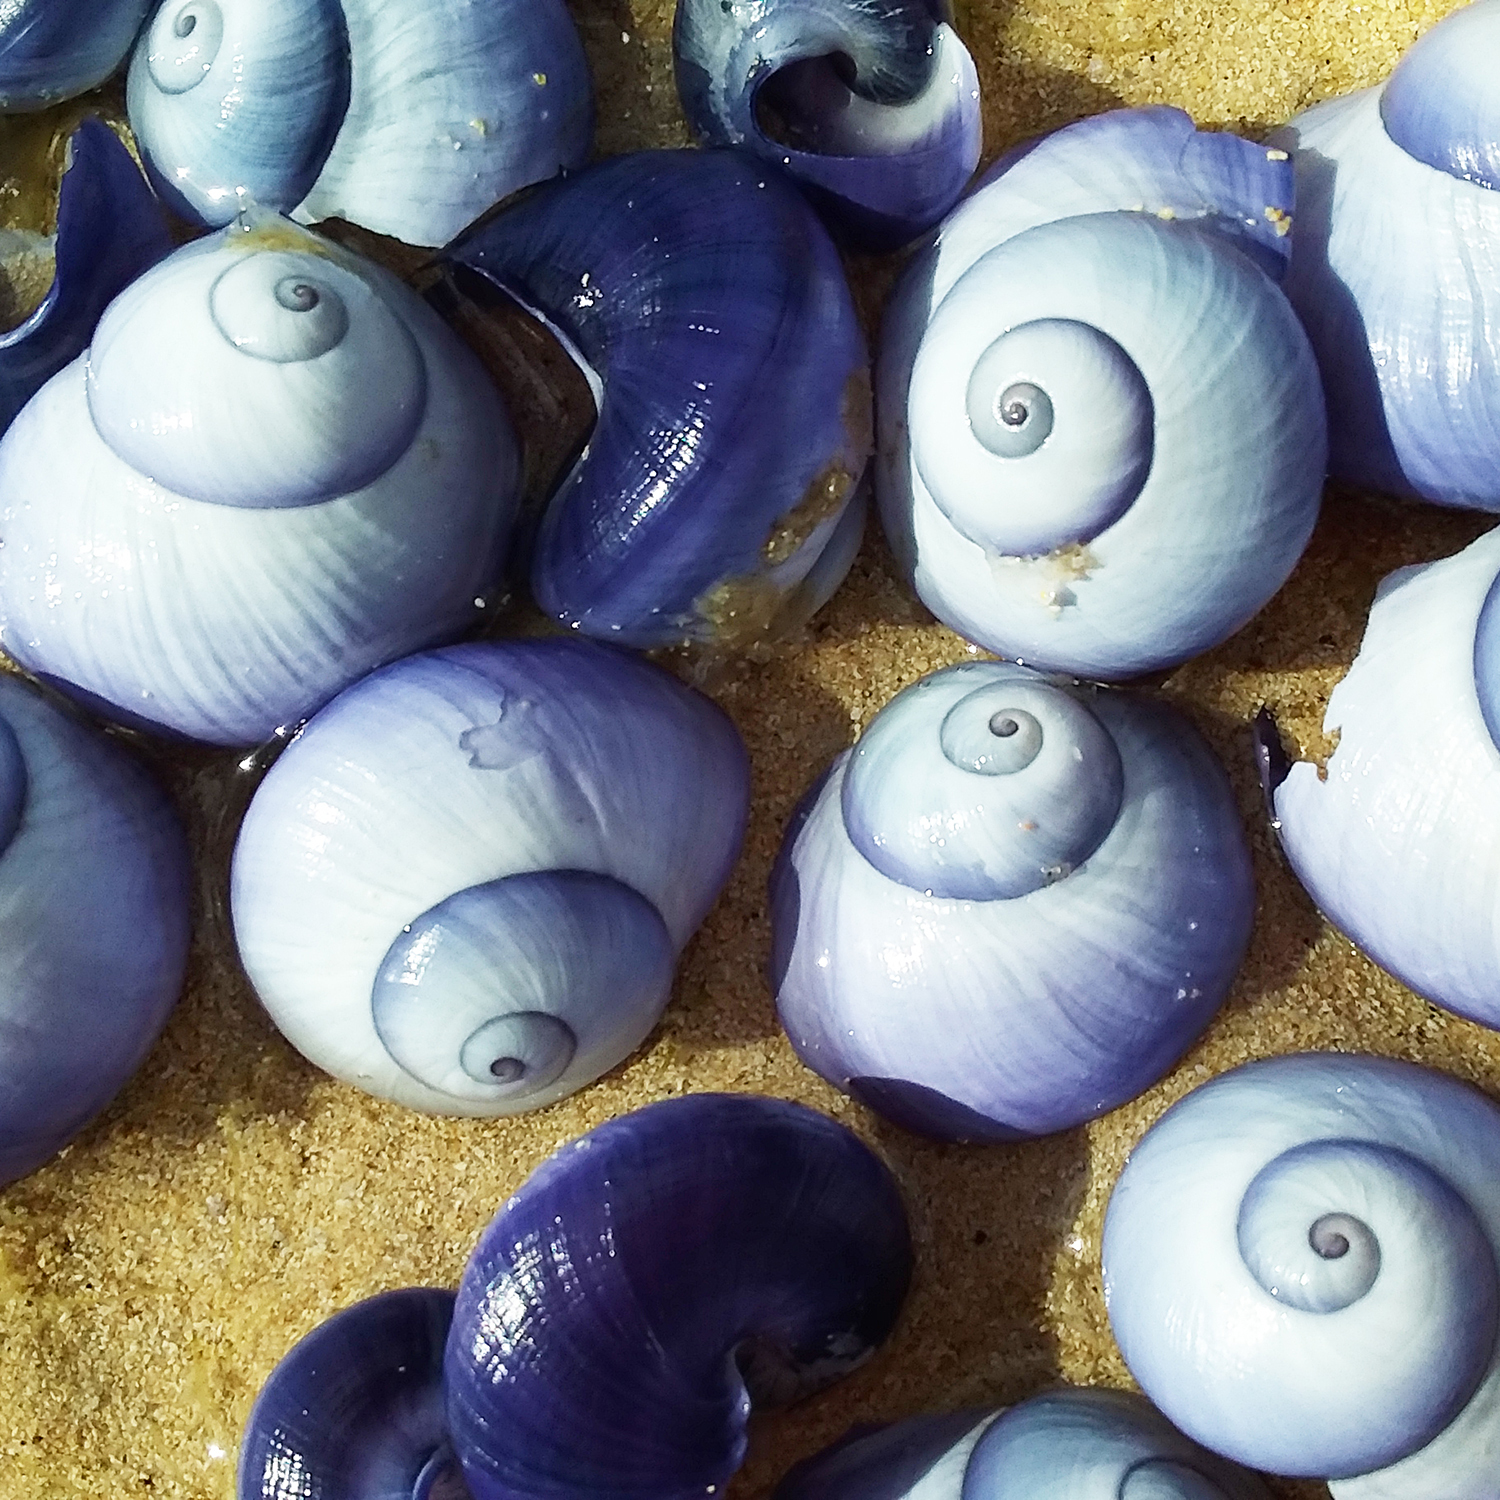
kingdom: Animalia
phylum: Mollusca
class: Gastropoda
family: Epitoniidae
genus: Janthina
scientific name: Janthina janthina
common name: Common janthina
